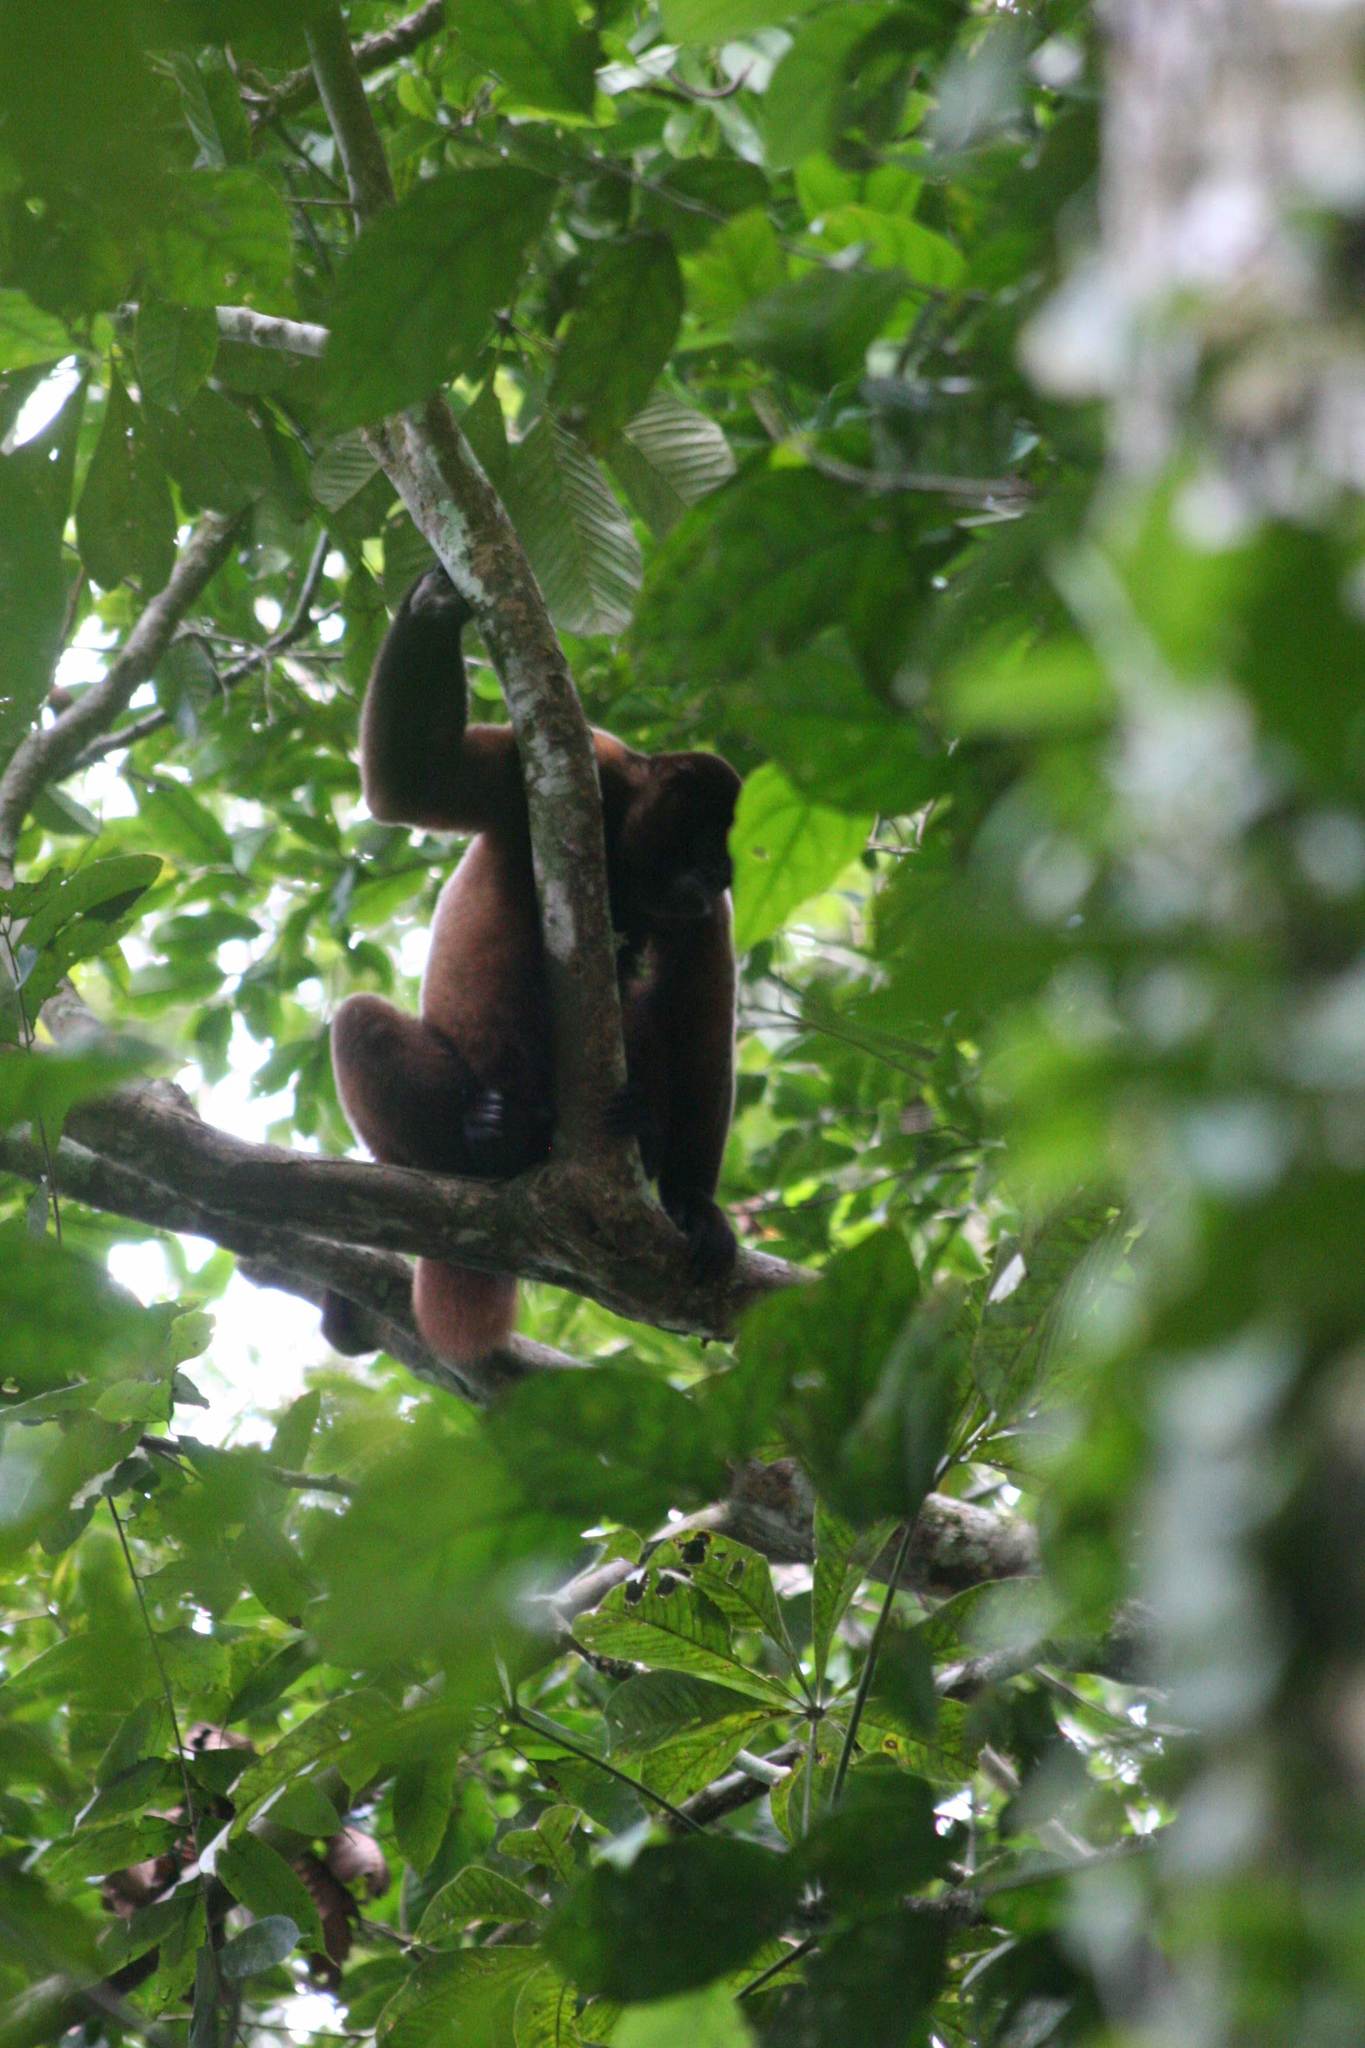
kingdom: Animalia
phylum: Chordata
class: Mammalia
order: Primates
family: Atelidae
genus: Lagothrix
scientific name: Lagothrix lagothricha
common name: Brown woolly monkey
